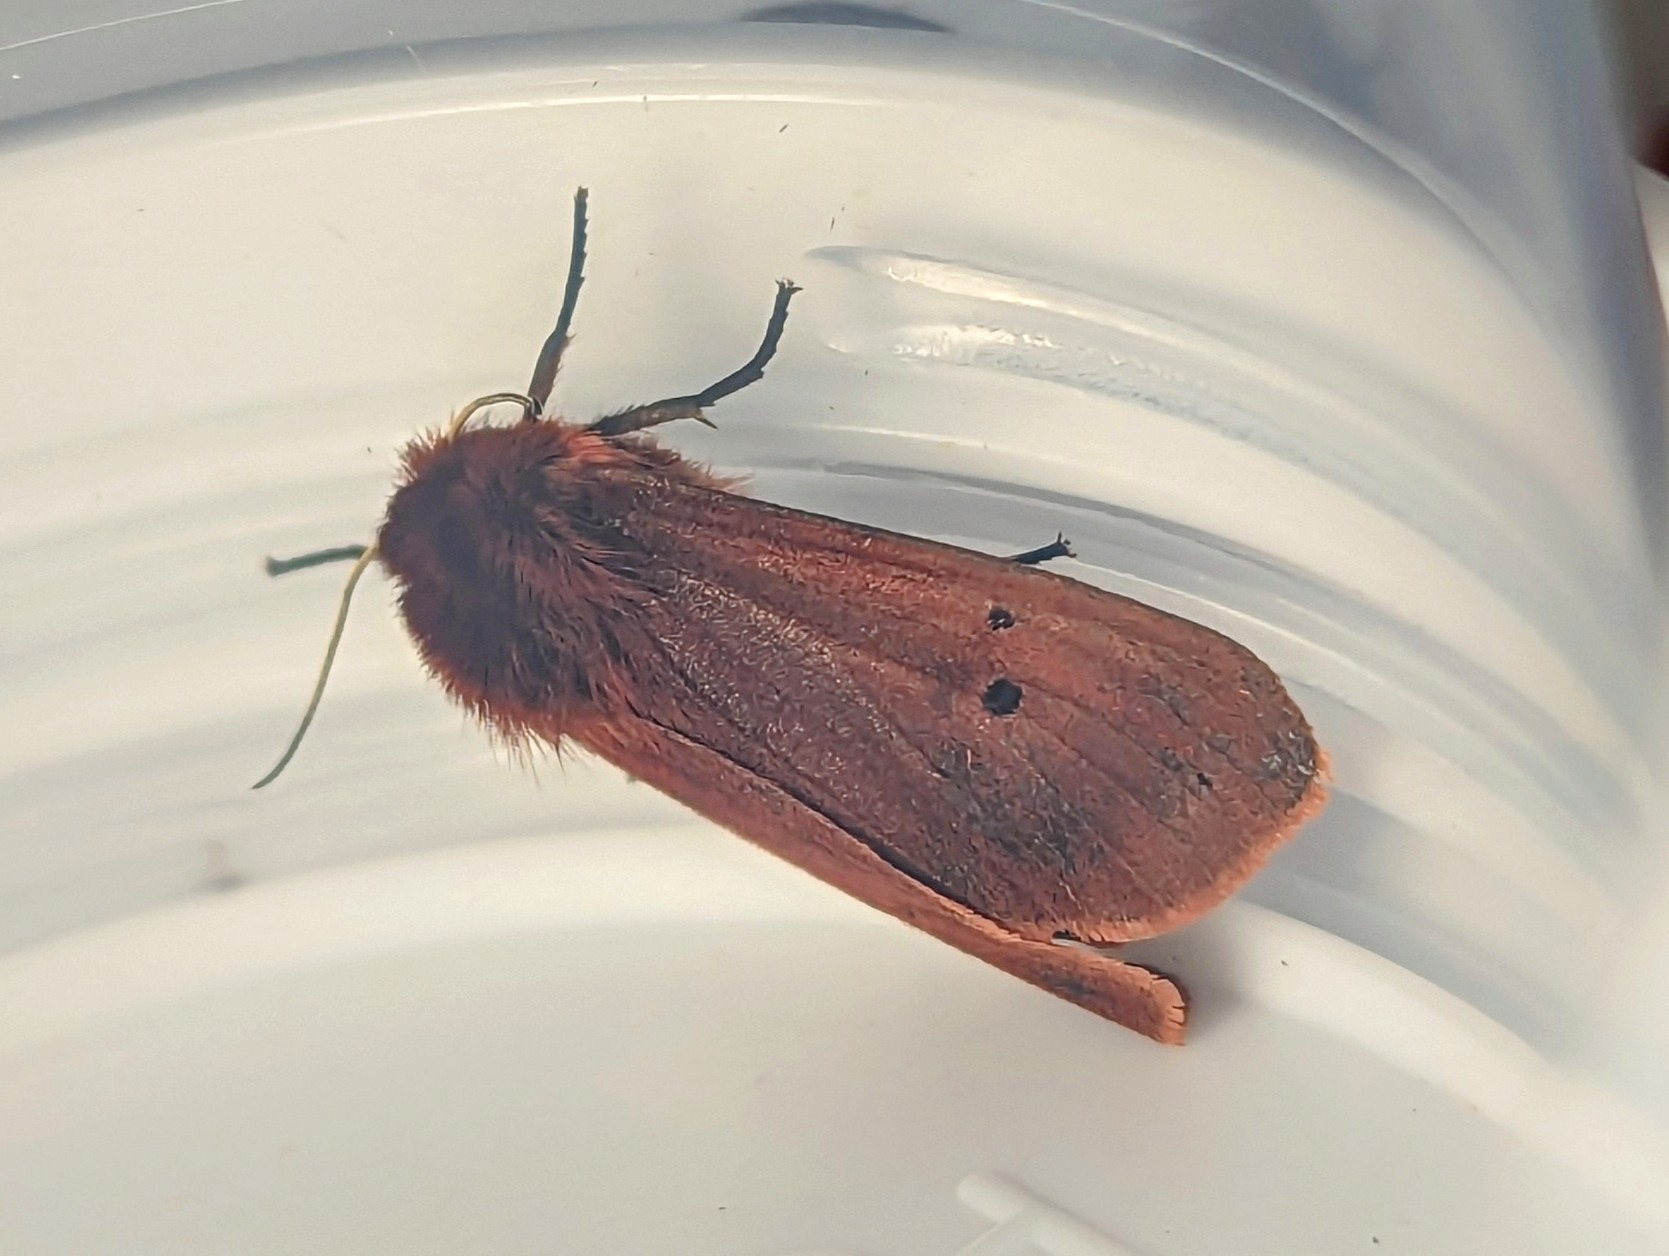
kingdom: Animalia
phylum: Arthropoda
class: Insecta
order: Lepidoptera
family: Erebidae
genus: Phragmatobia
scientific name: Phragmatobia fuliginosa
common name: Ruby tiger
